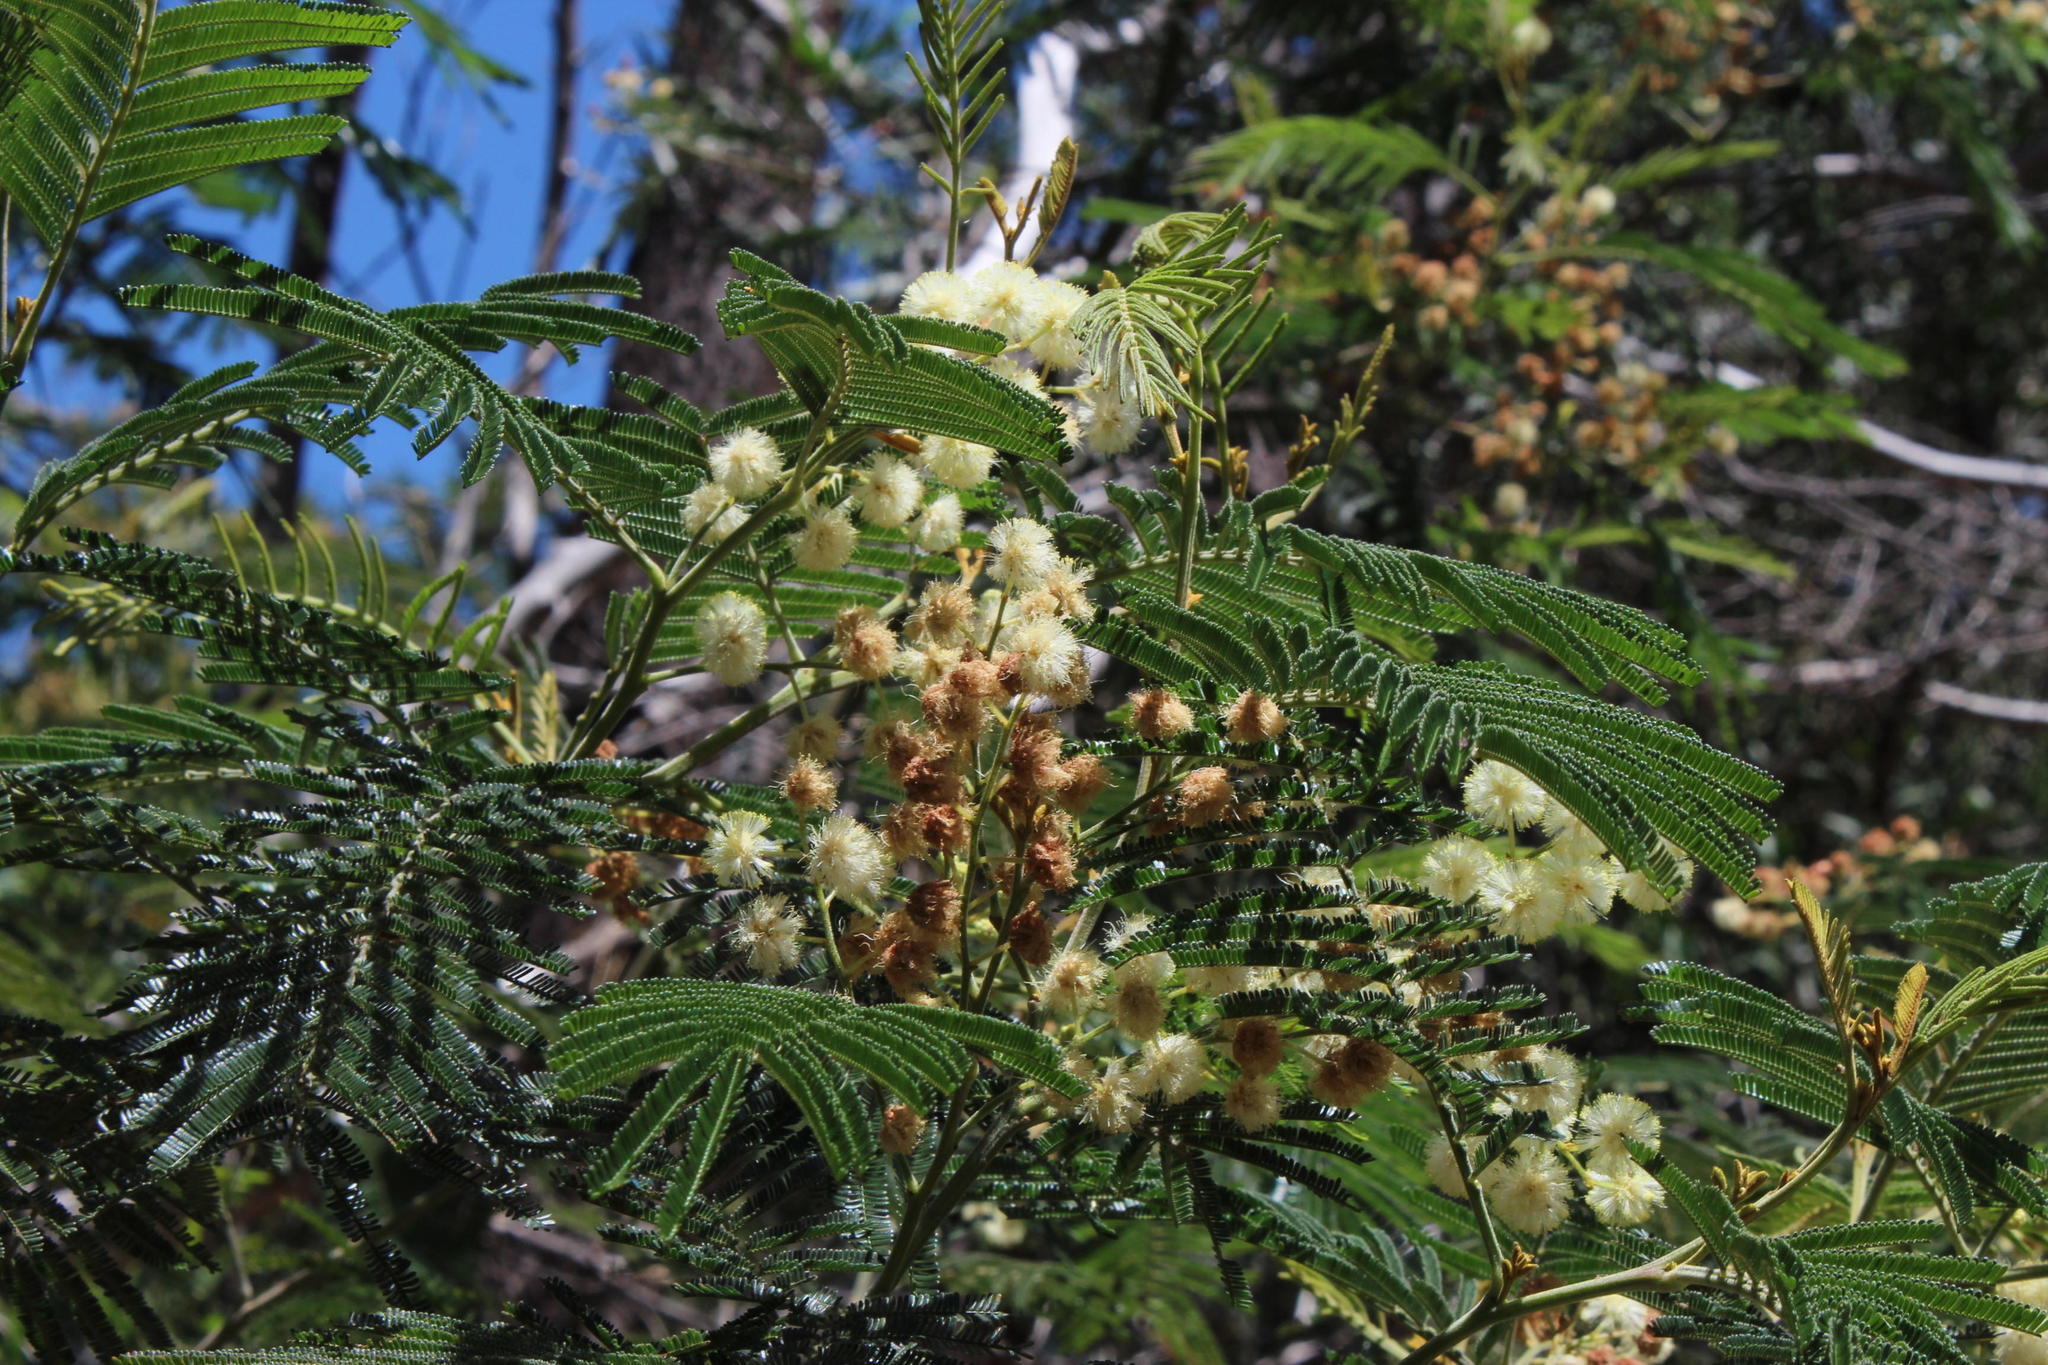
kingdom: Plantae
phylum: Tracheophyta
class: Magnoliopsida
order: Fabales
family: Fabaceae
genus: Acacia
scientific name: Acacia mearnsii
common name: Black wattle
